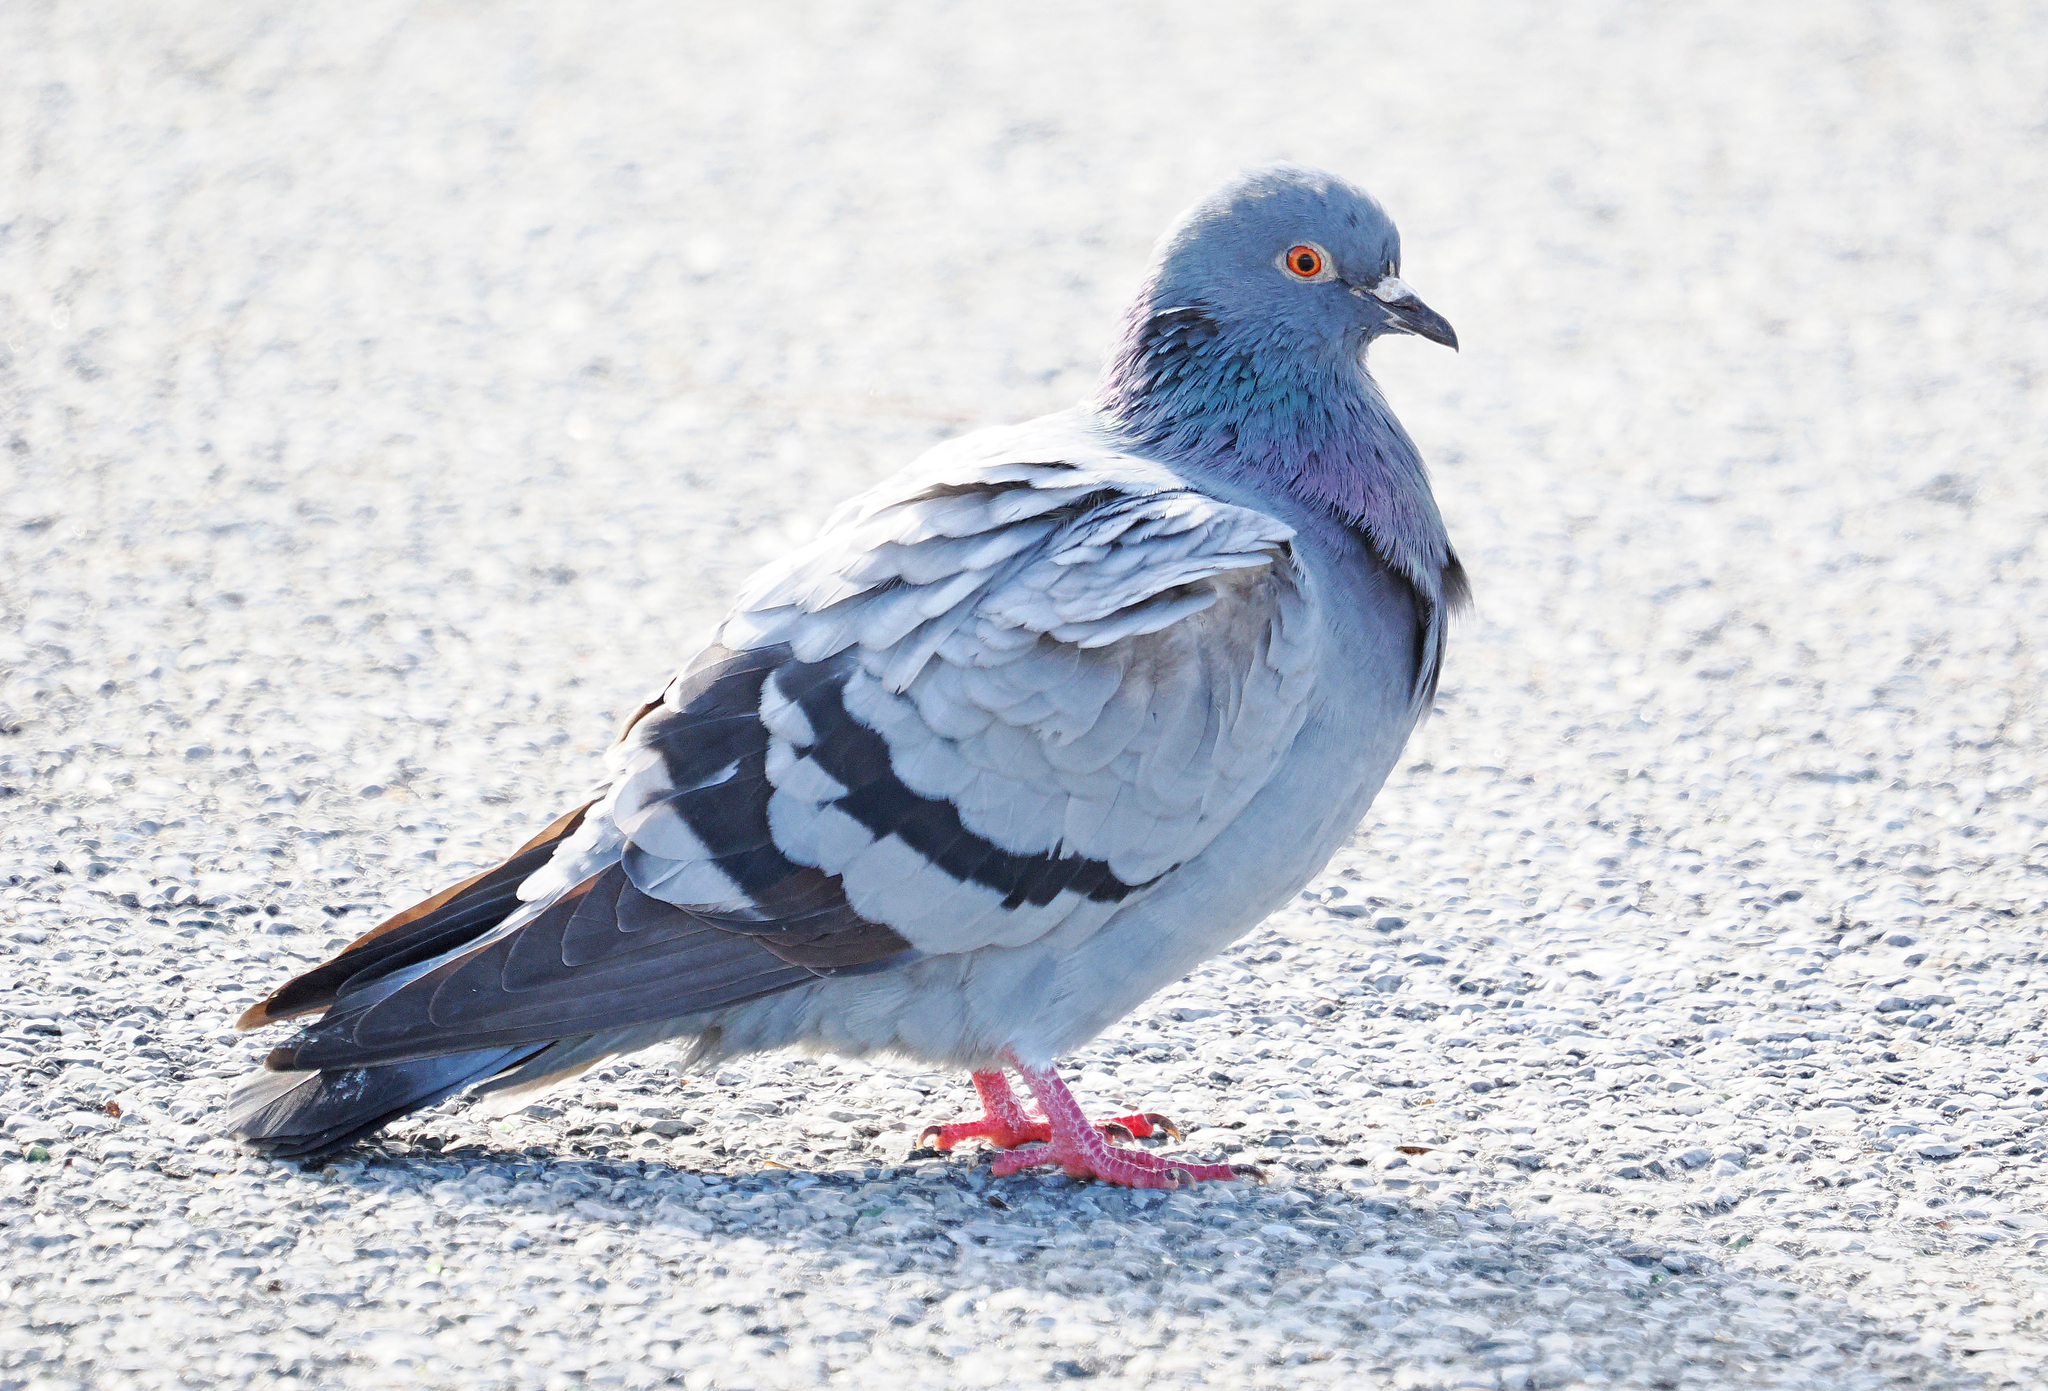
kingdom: Animalia
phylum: Chordata
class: Aves
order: Columbiformes
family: Columbidae
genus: Columba
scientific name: Columba livia
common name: Rock pigeon
